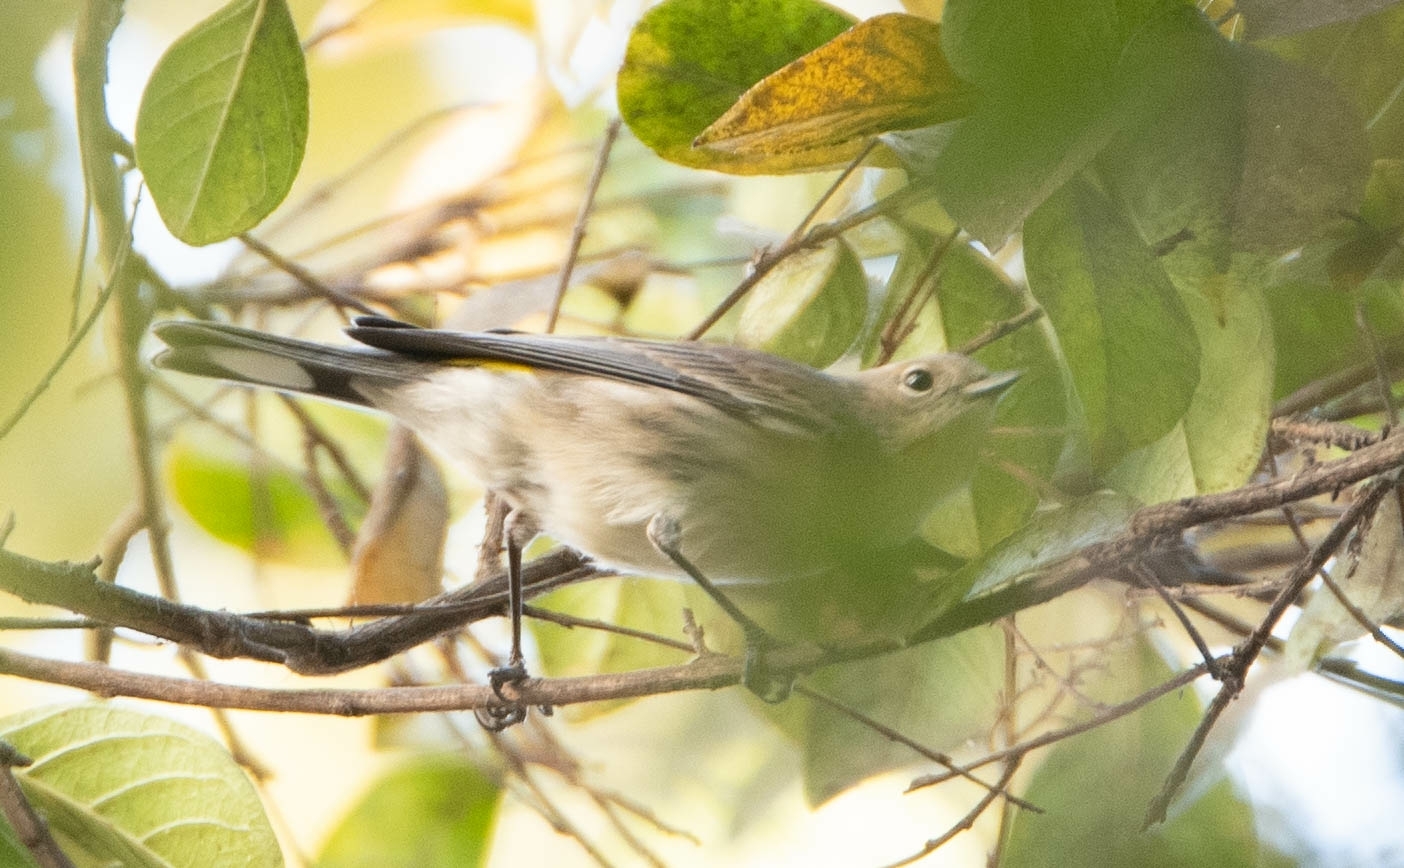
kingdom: Animalia
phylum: Chordata
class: Aves
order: Passeriformes
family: Parulidae
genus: Setophaga
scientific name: Setophaga coronata
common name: Myrtle warbler
